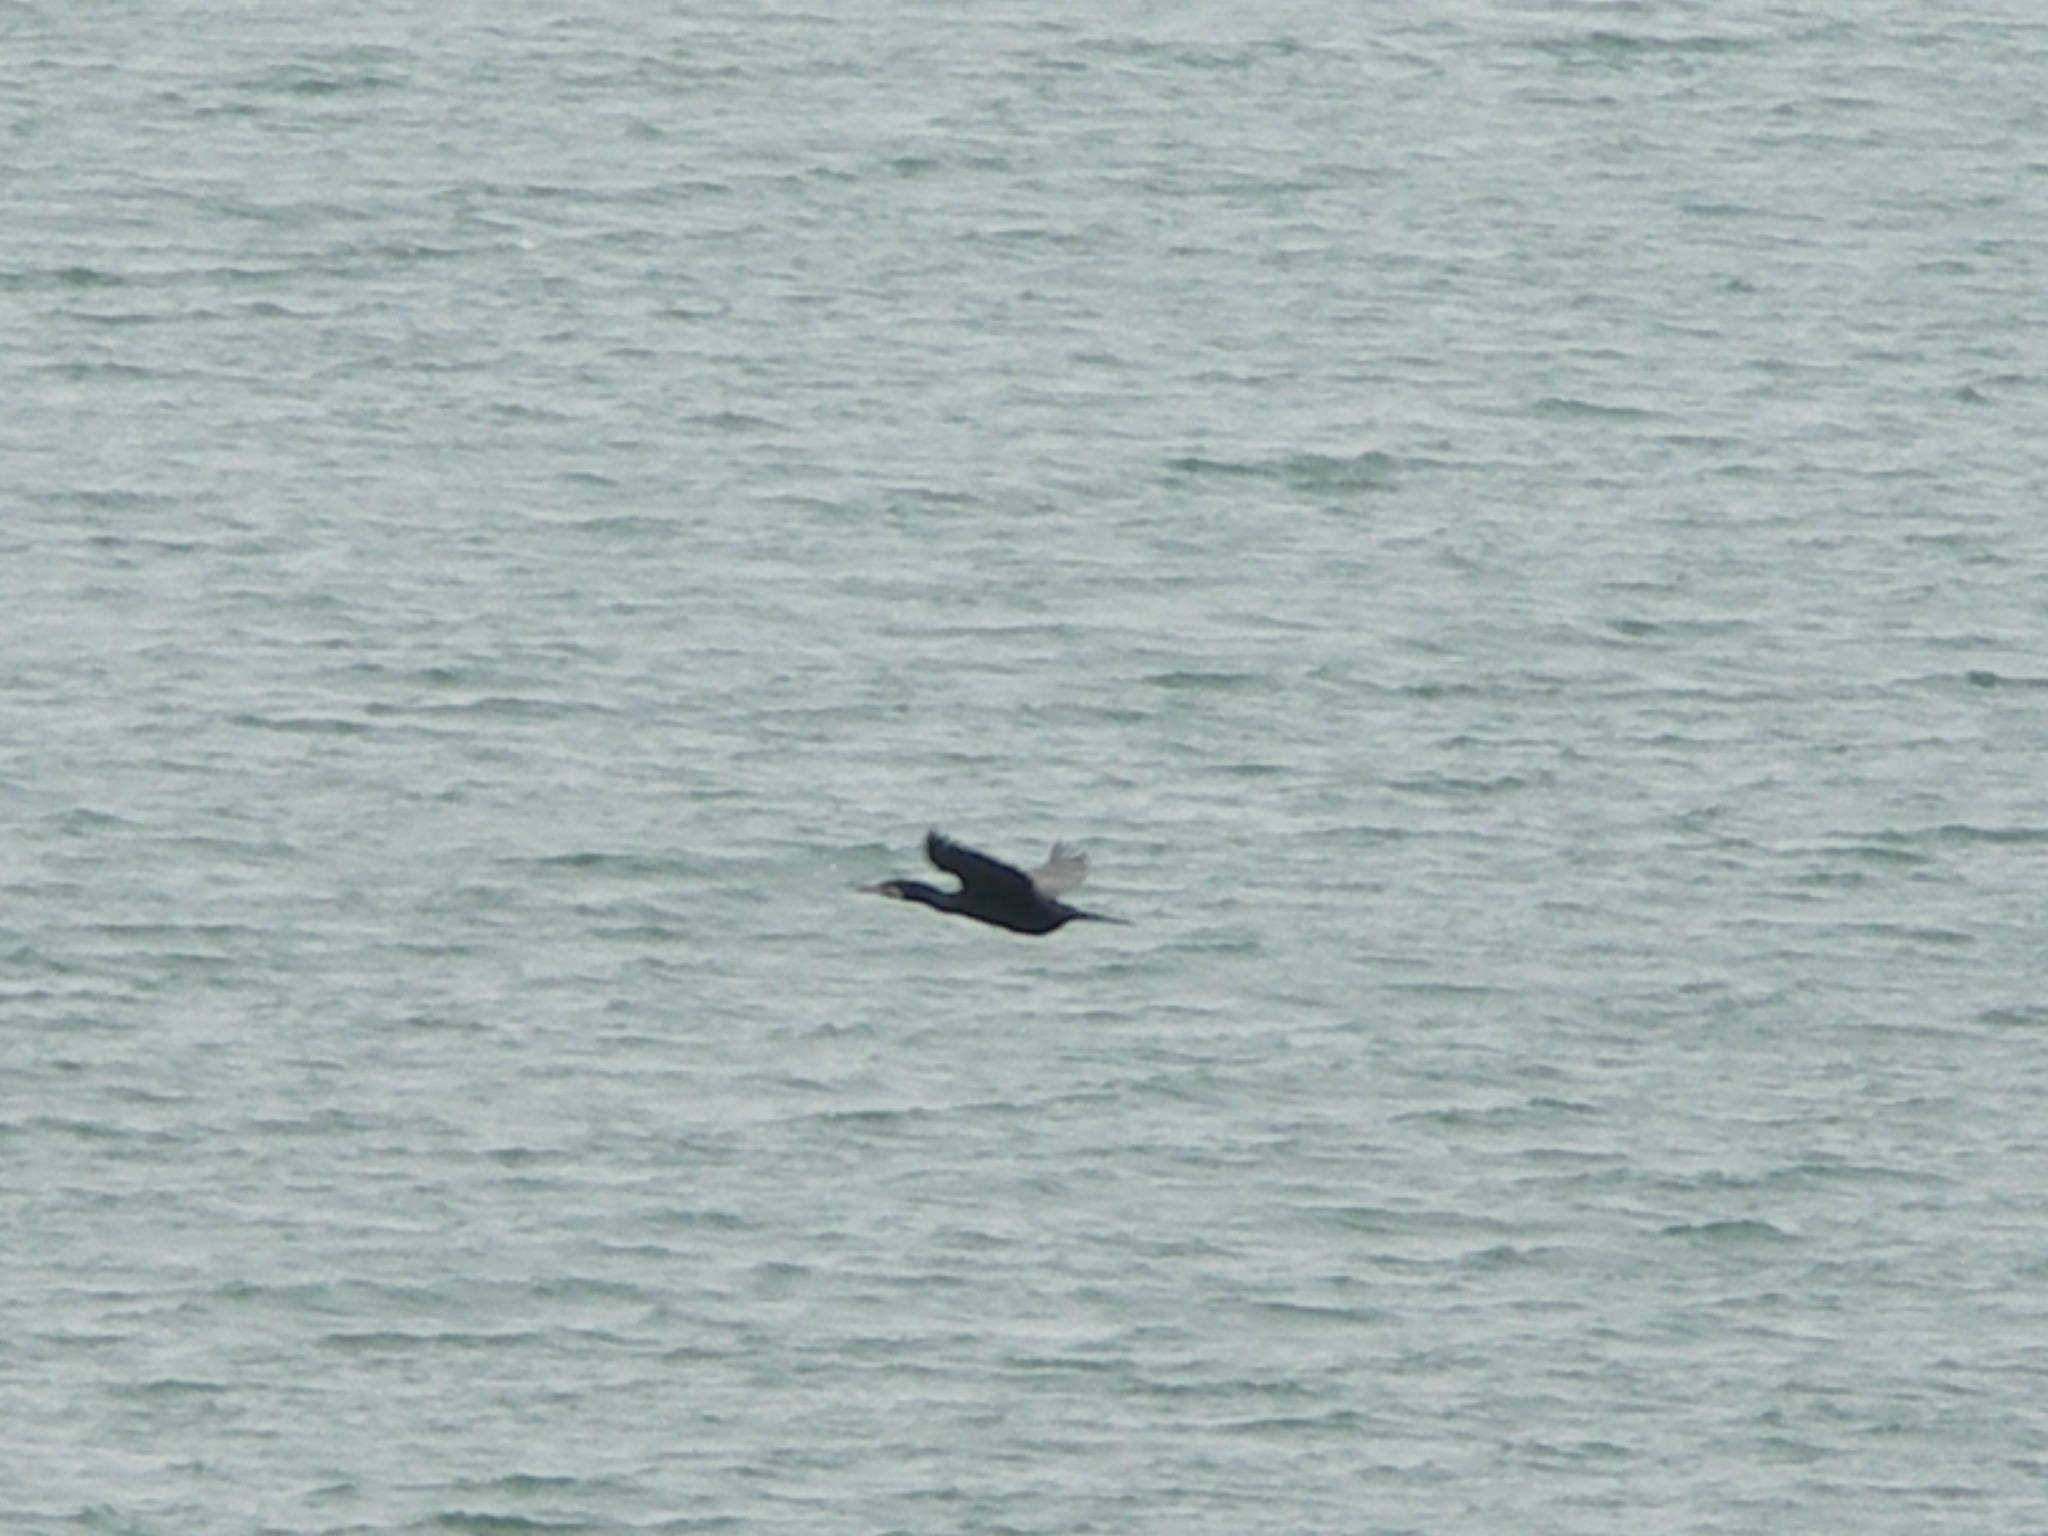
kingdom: Animalia
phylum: Chordata
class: Aves
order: Suliformes
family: Phalacrocoracidae
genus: Phalacrocorax
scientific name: Phalacrocorax carbo
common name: Great cormorant
